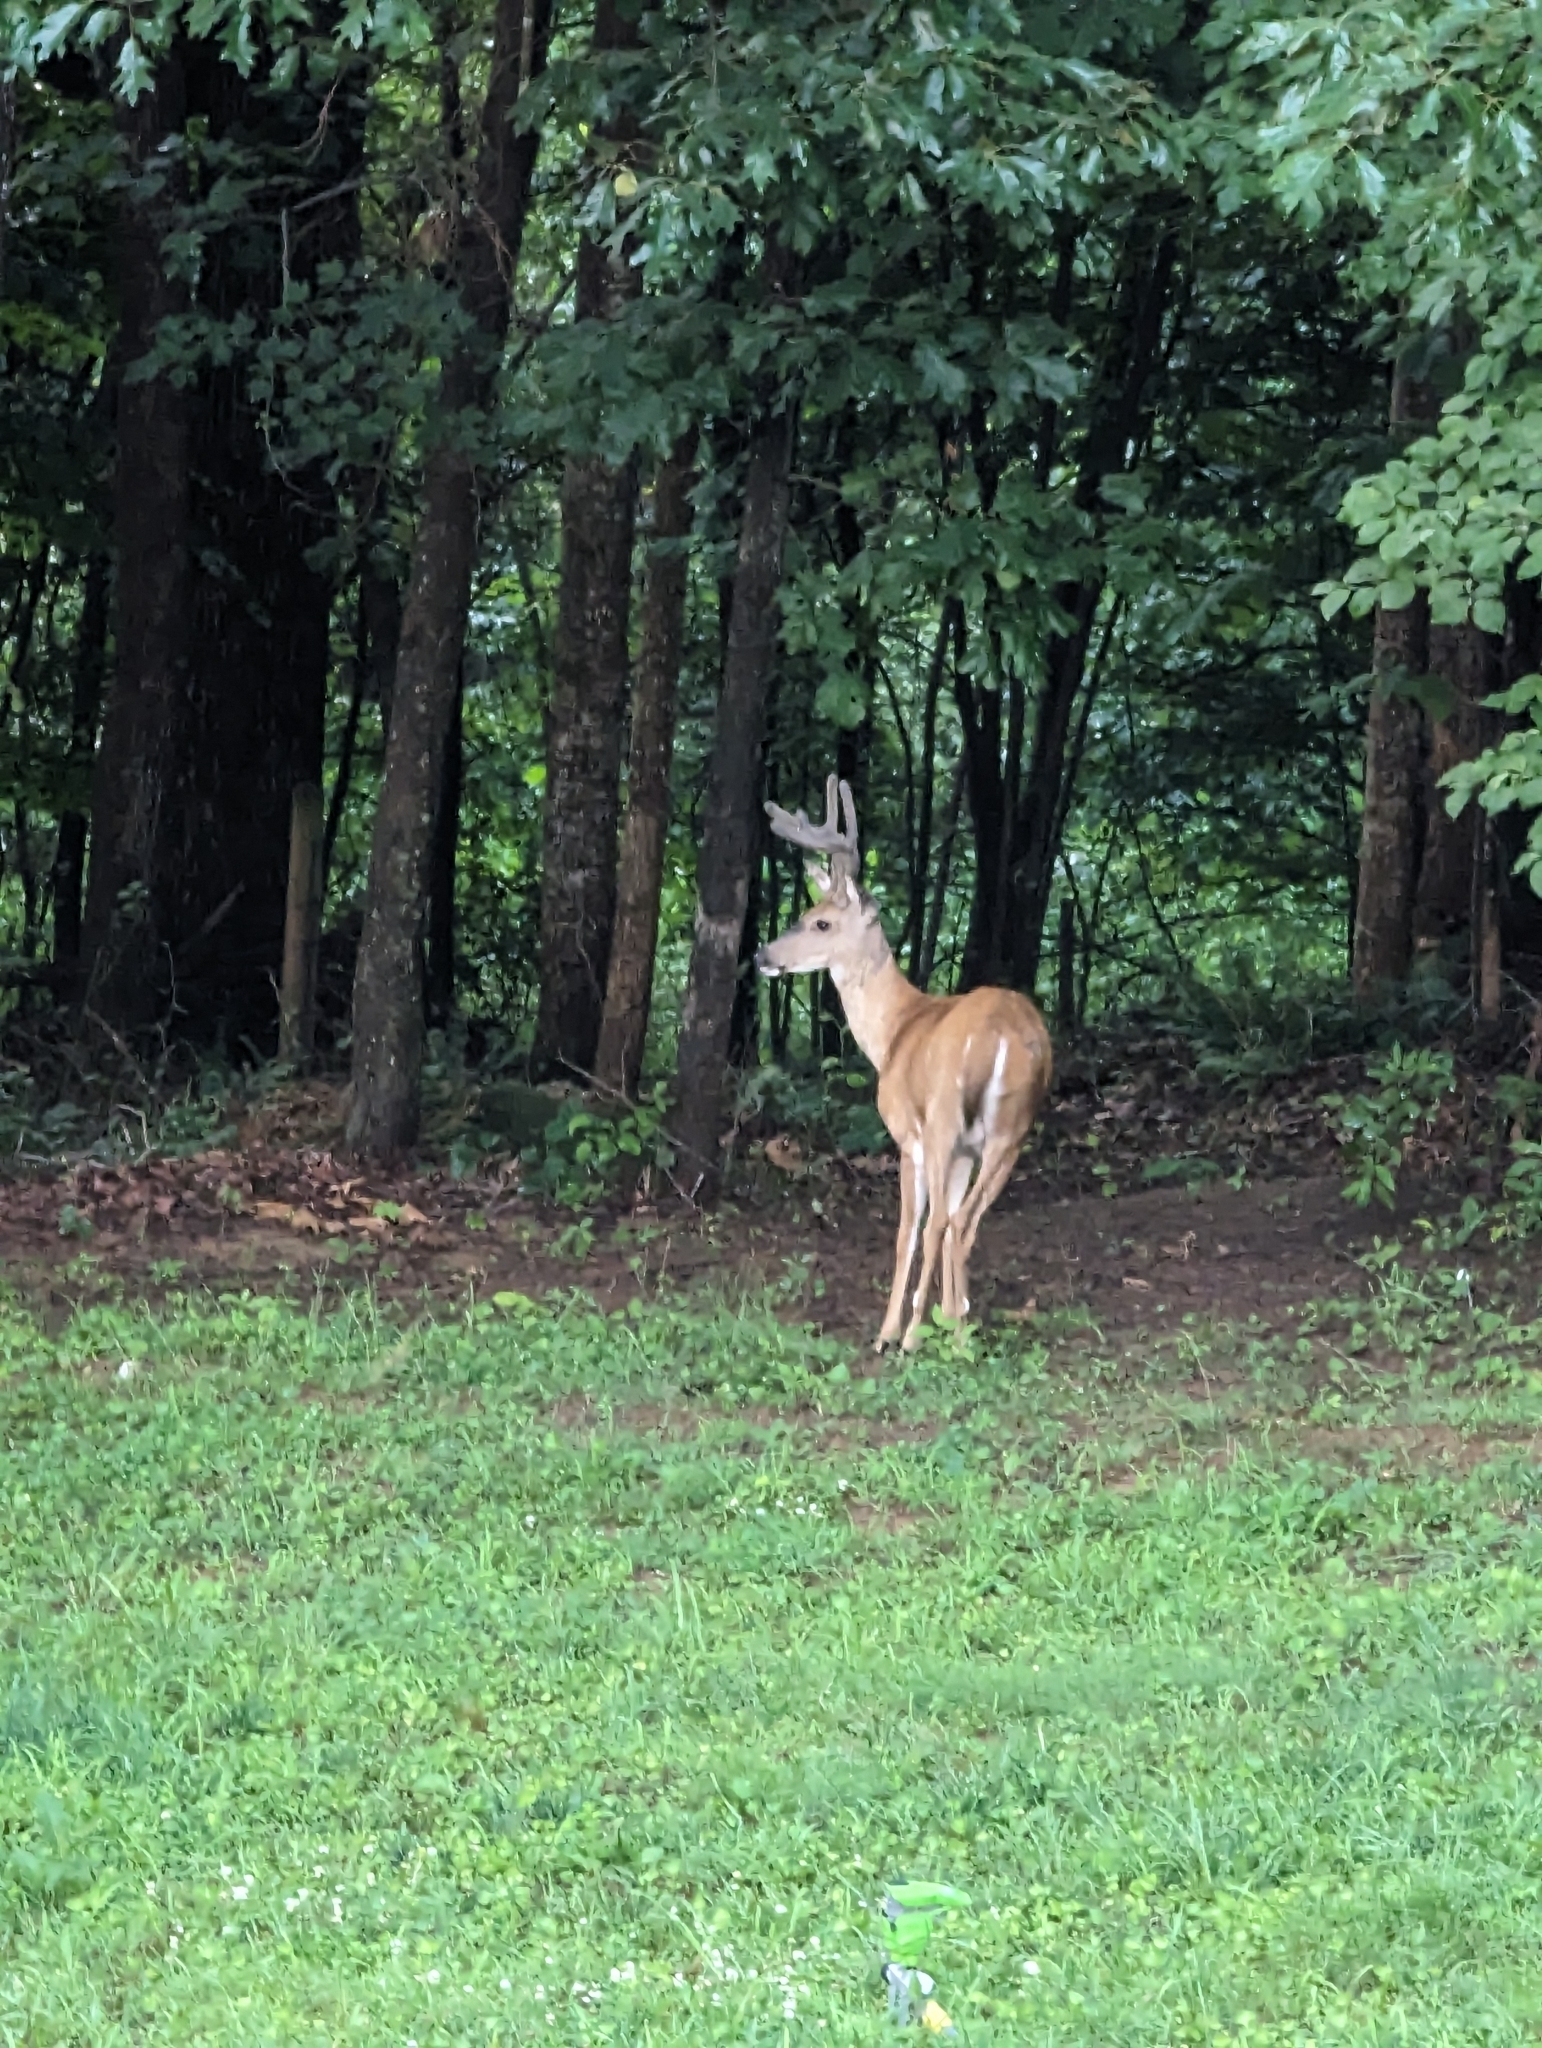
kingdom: Animalia
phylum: Chordata
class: Mammalia
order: Artiodactyla
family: Cervidae
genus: Odocoileus
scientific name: Odocoileus virginianus
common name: White-tailed deer
